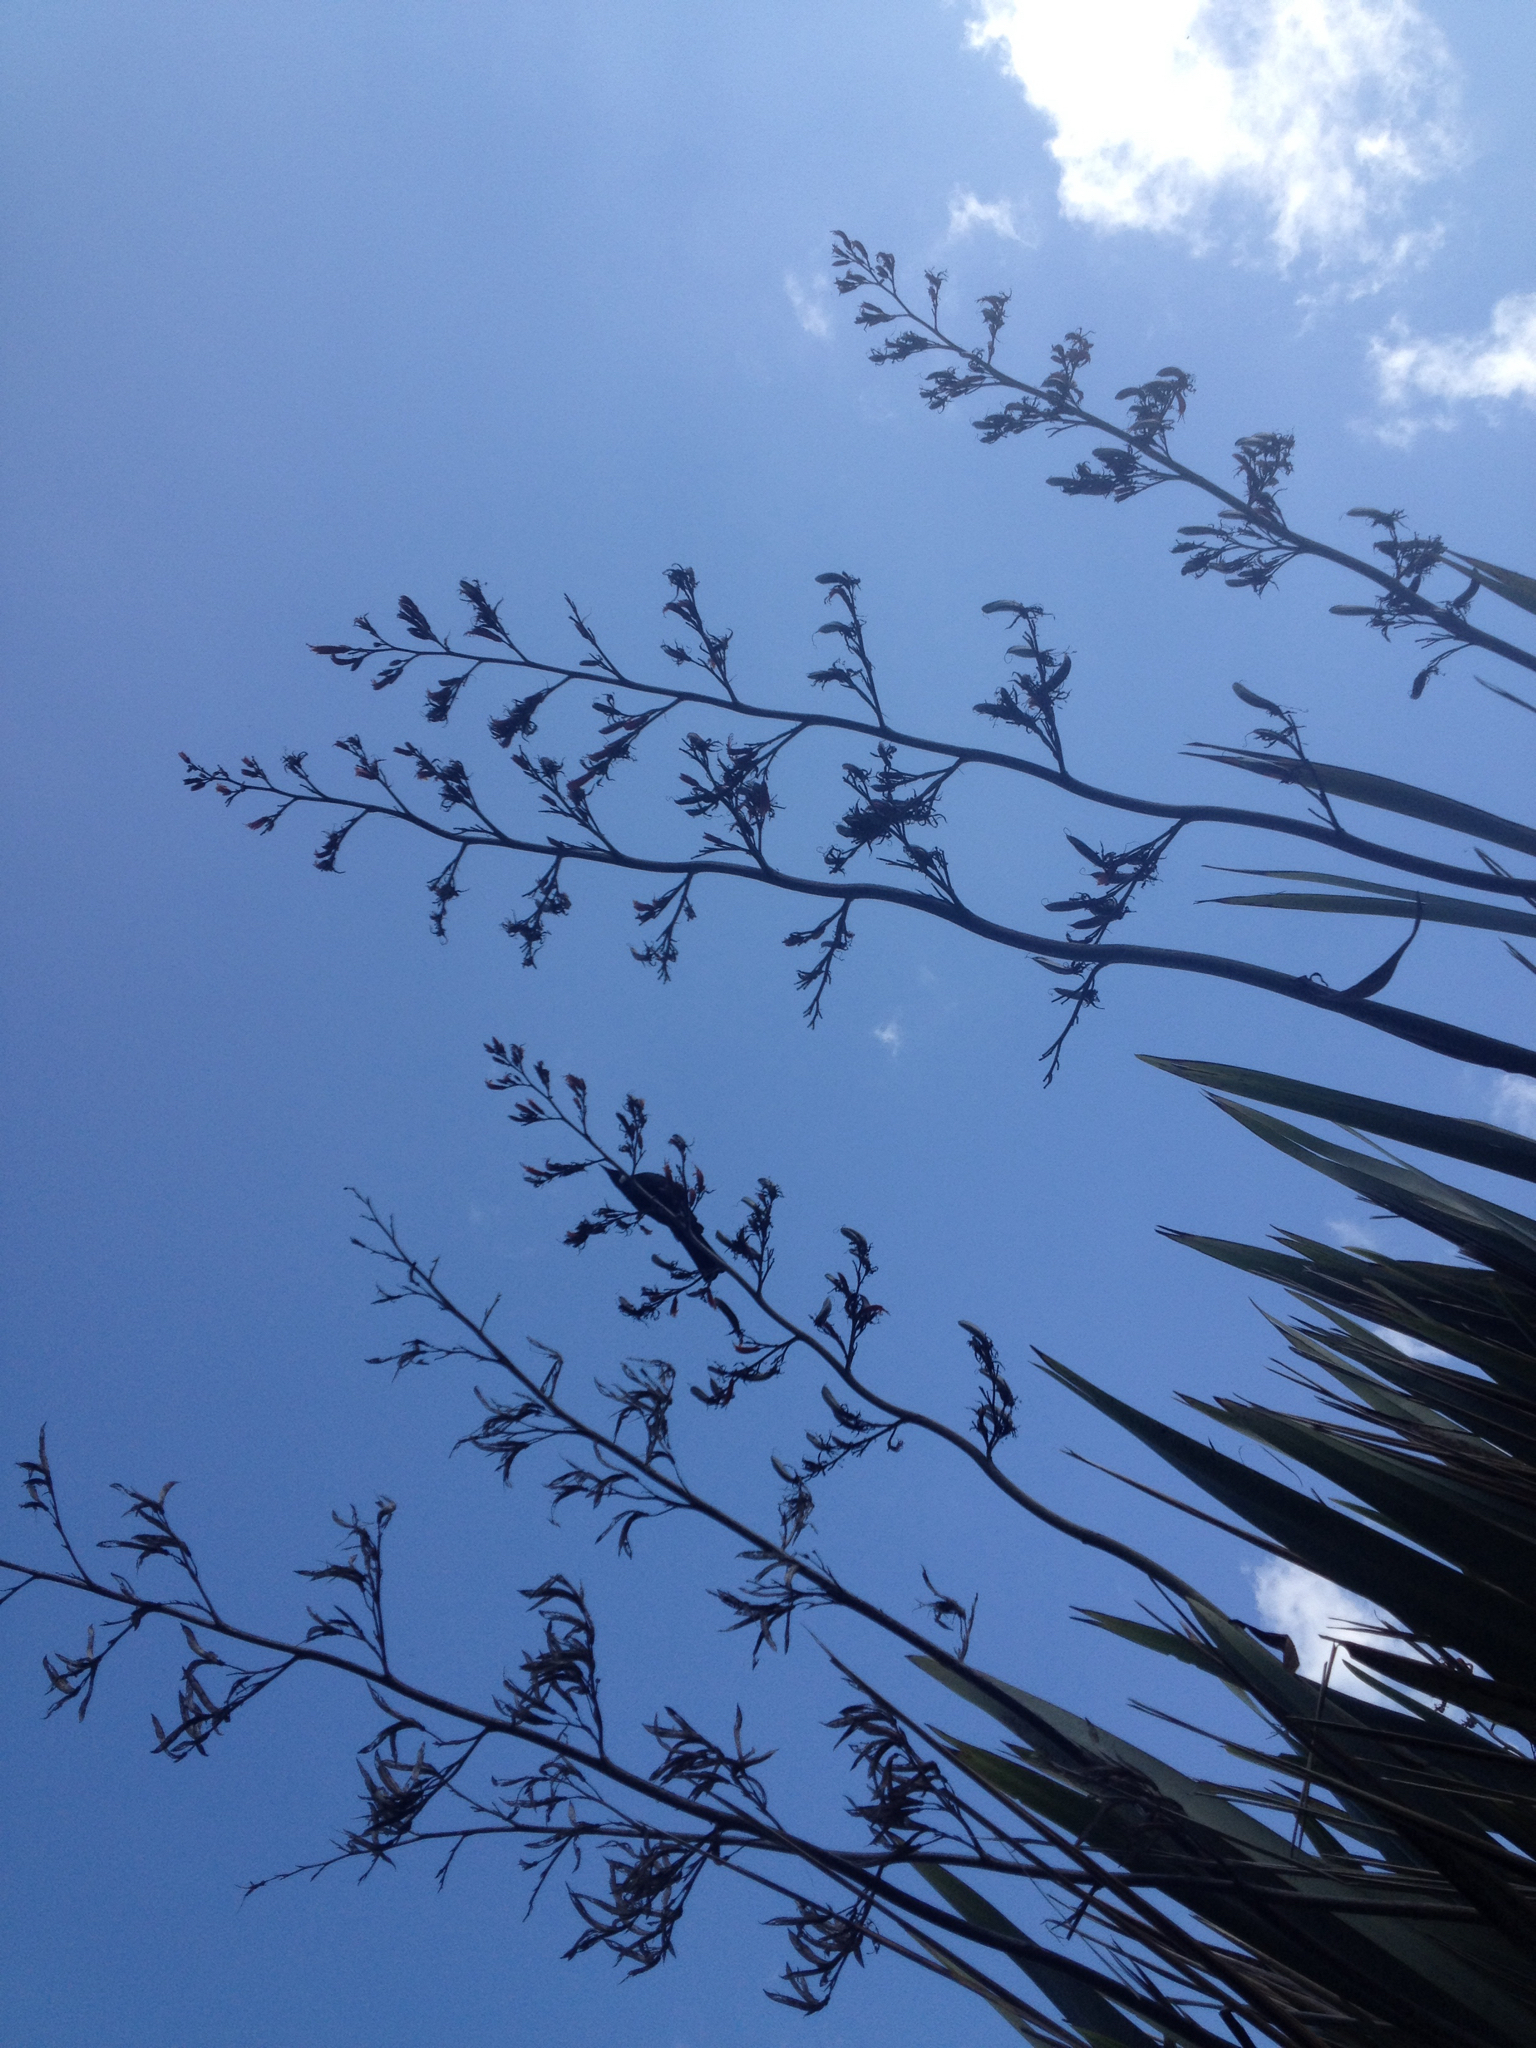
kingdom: Animalia
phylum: Chordata
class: Aves
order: Passeriformes
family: Meliphagidae
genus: Prosthemadera
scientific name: Prosthemadera novaeseelandiae
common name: Tui
